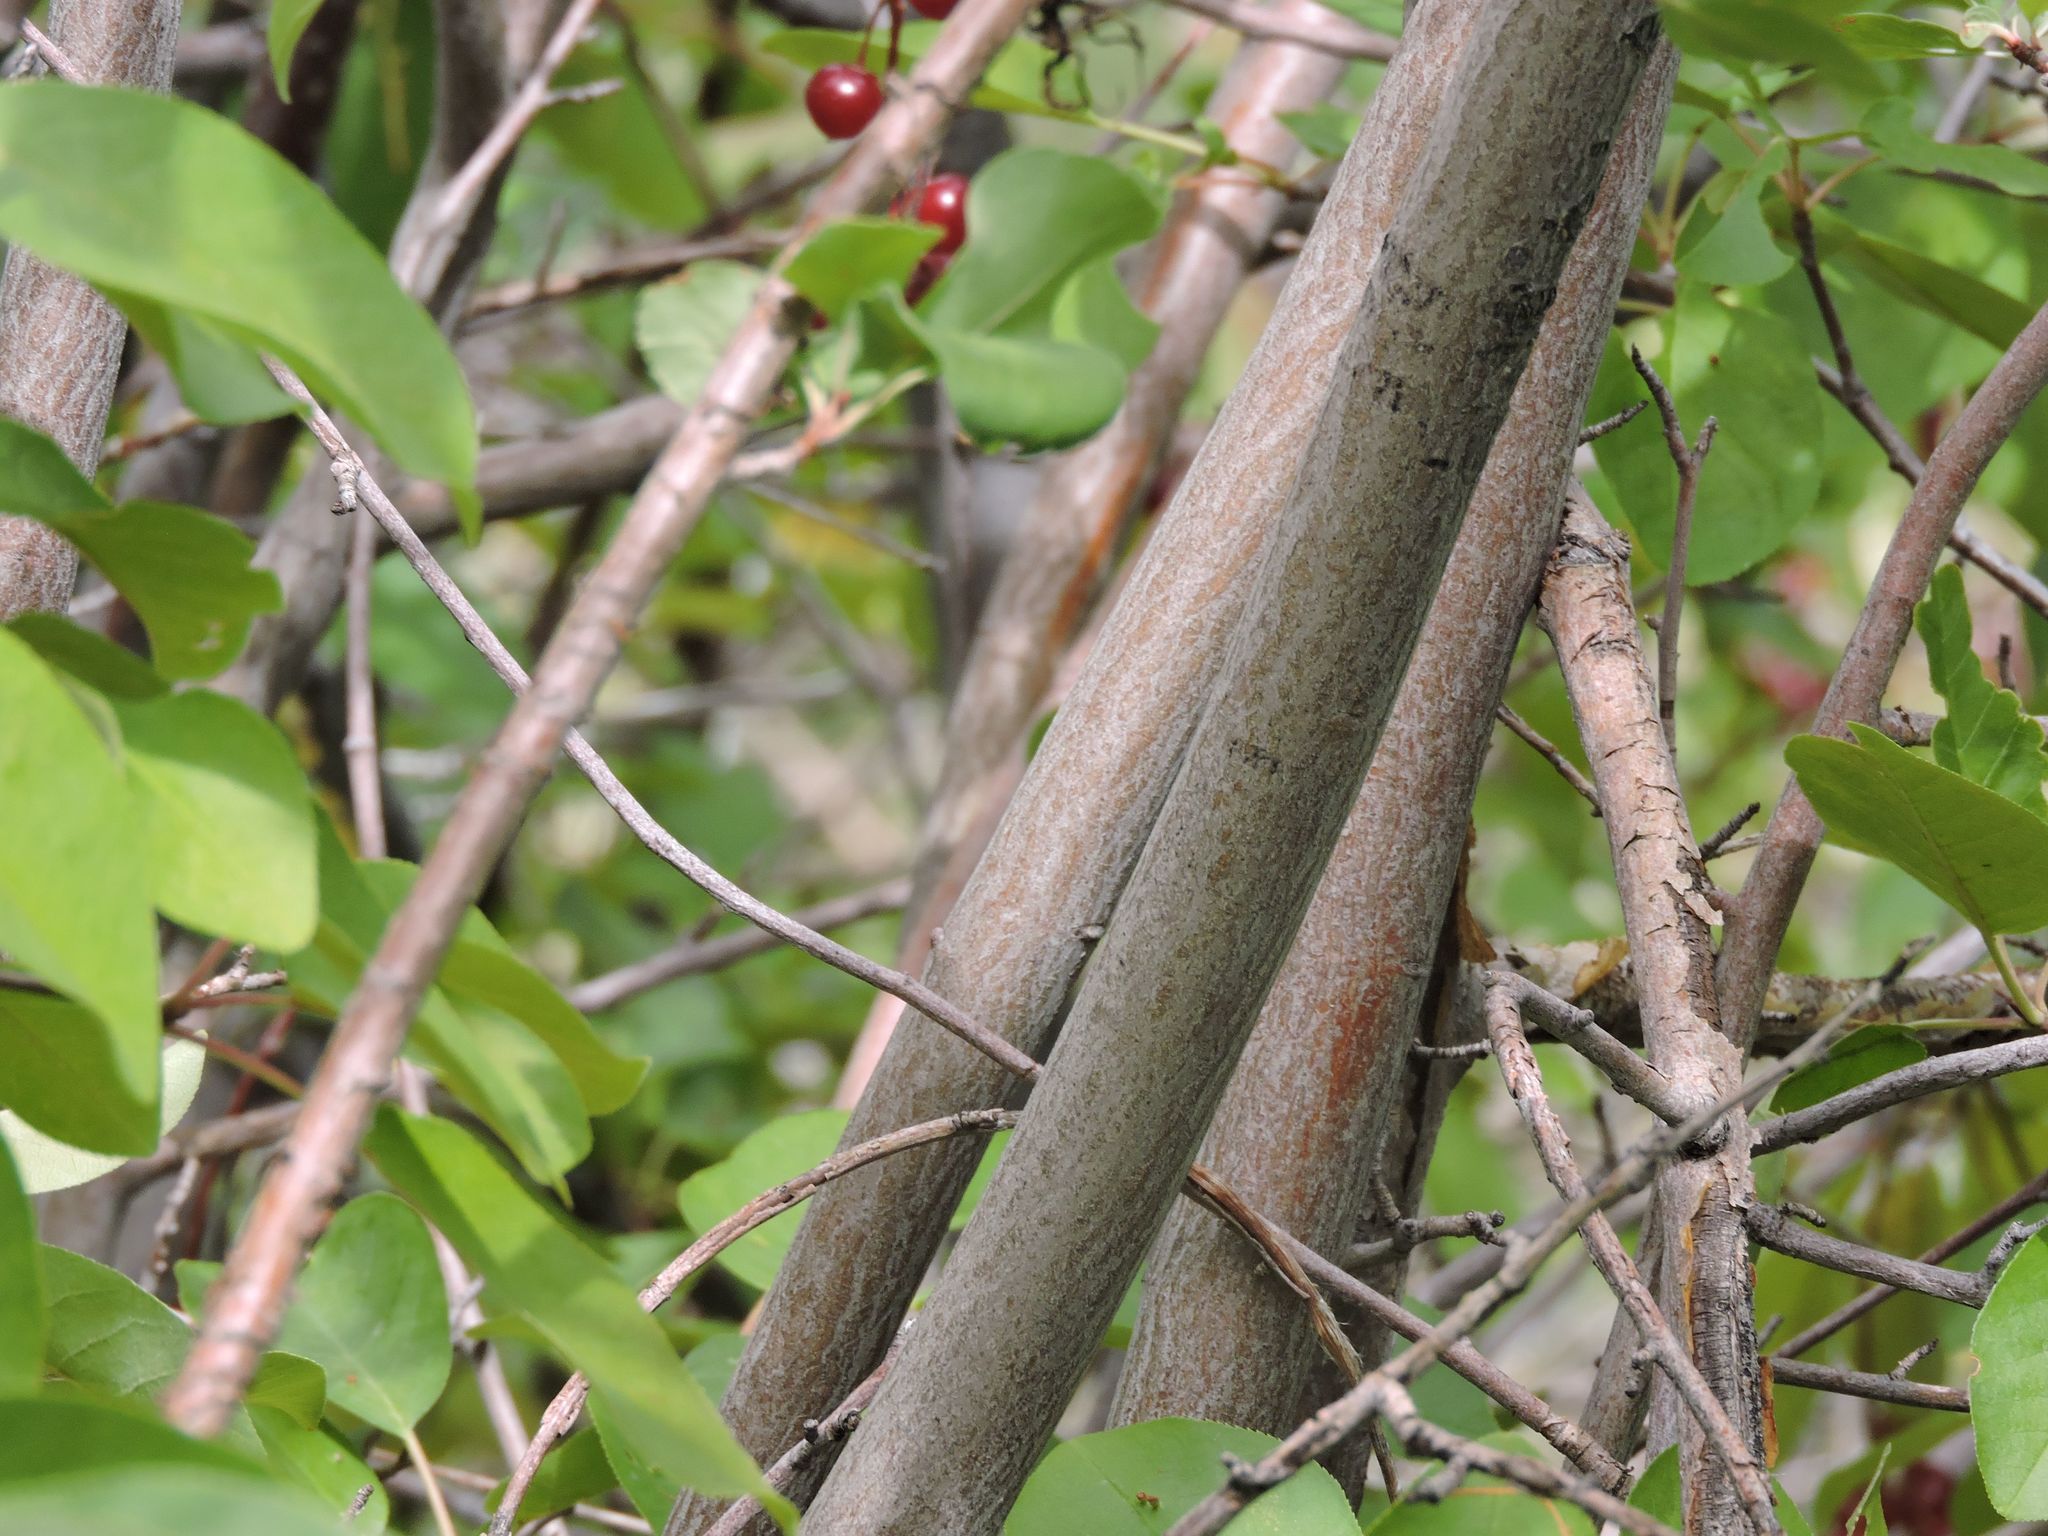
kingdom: Plantae
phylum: Tracheophyta
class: Magnoliopsida
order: Rosales
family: Rosaceae
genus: Prunus
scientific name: Prunus virginiana
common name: Chokecherry
